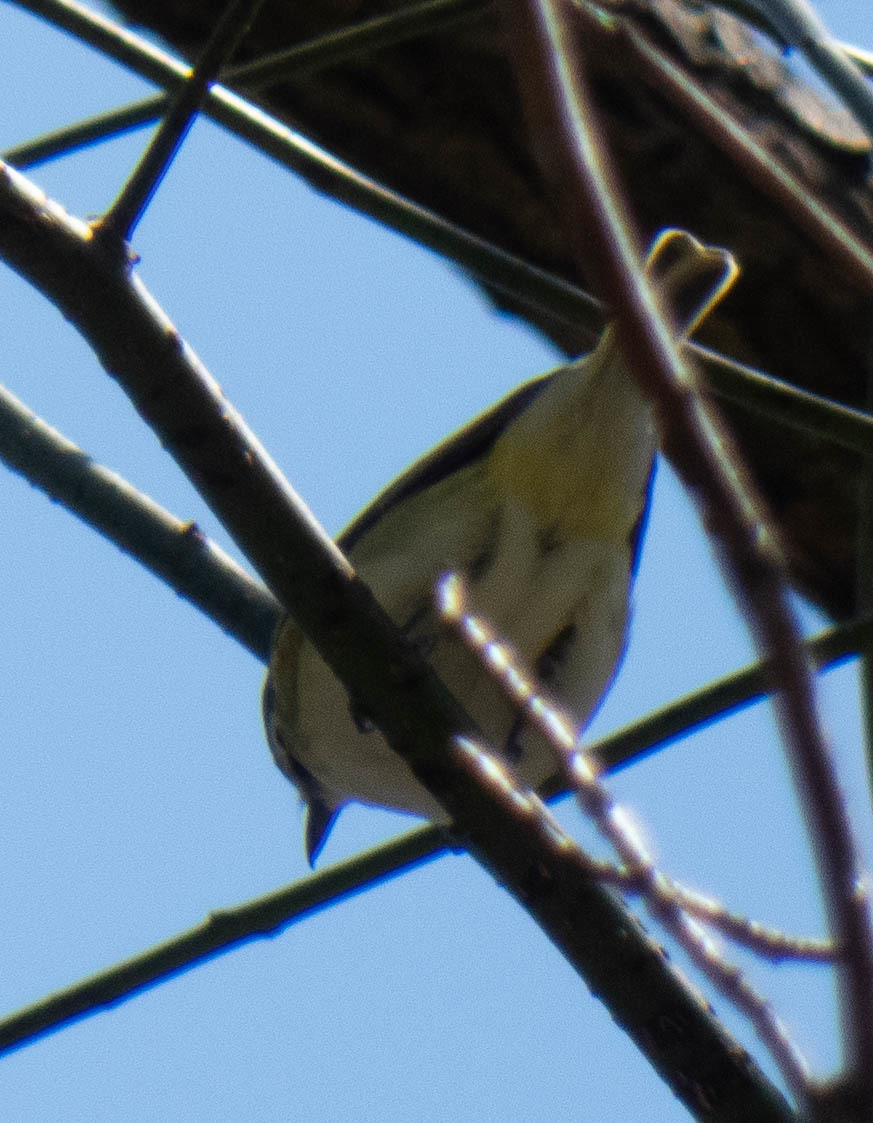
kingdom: Animalia
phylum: Chordata
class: Aves
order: Passeriformes
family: Vireonidae
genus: Vireo
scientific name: Vireo solitarius
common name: Blue-headed vireo
